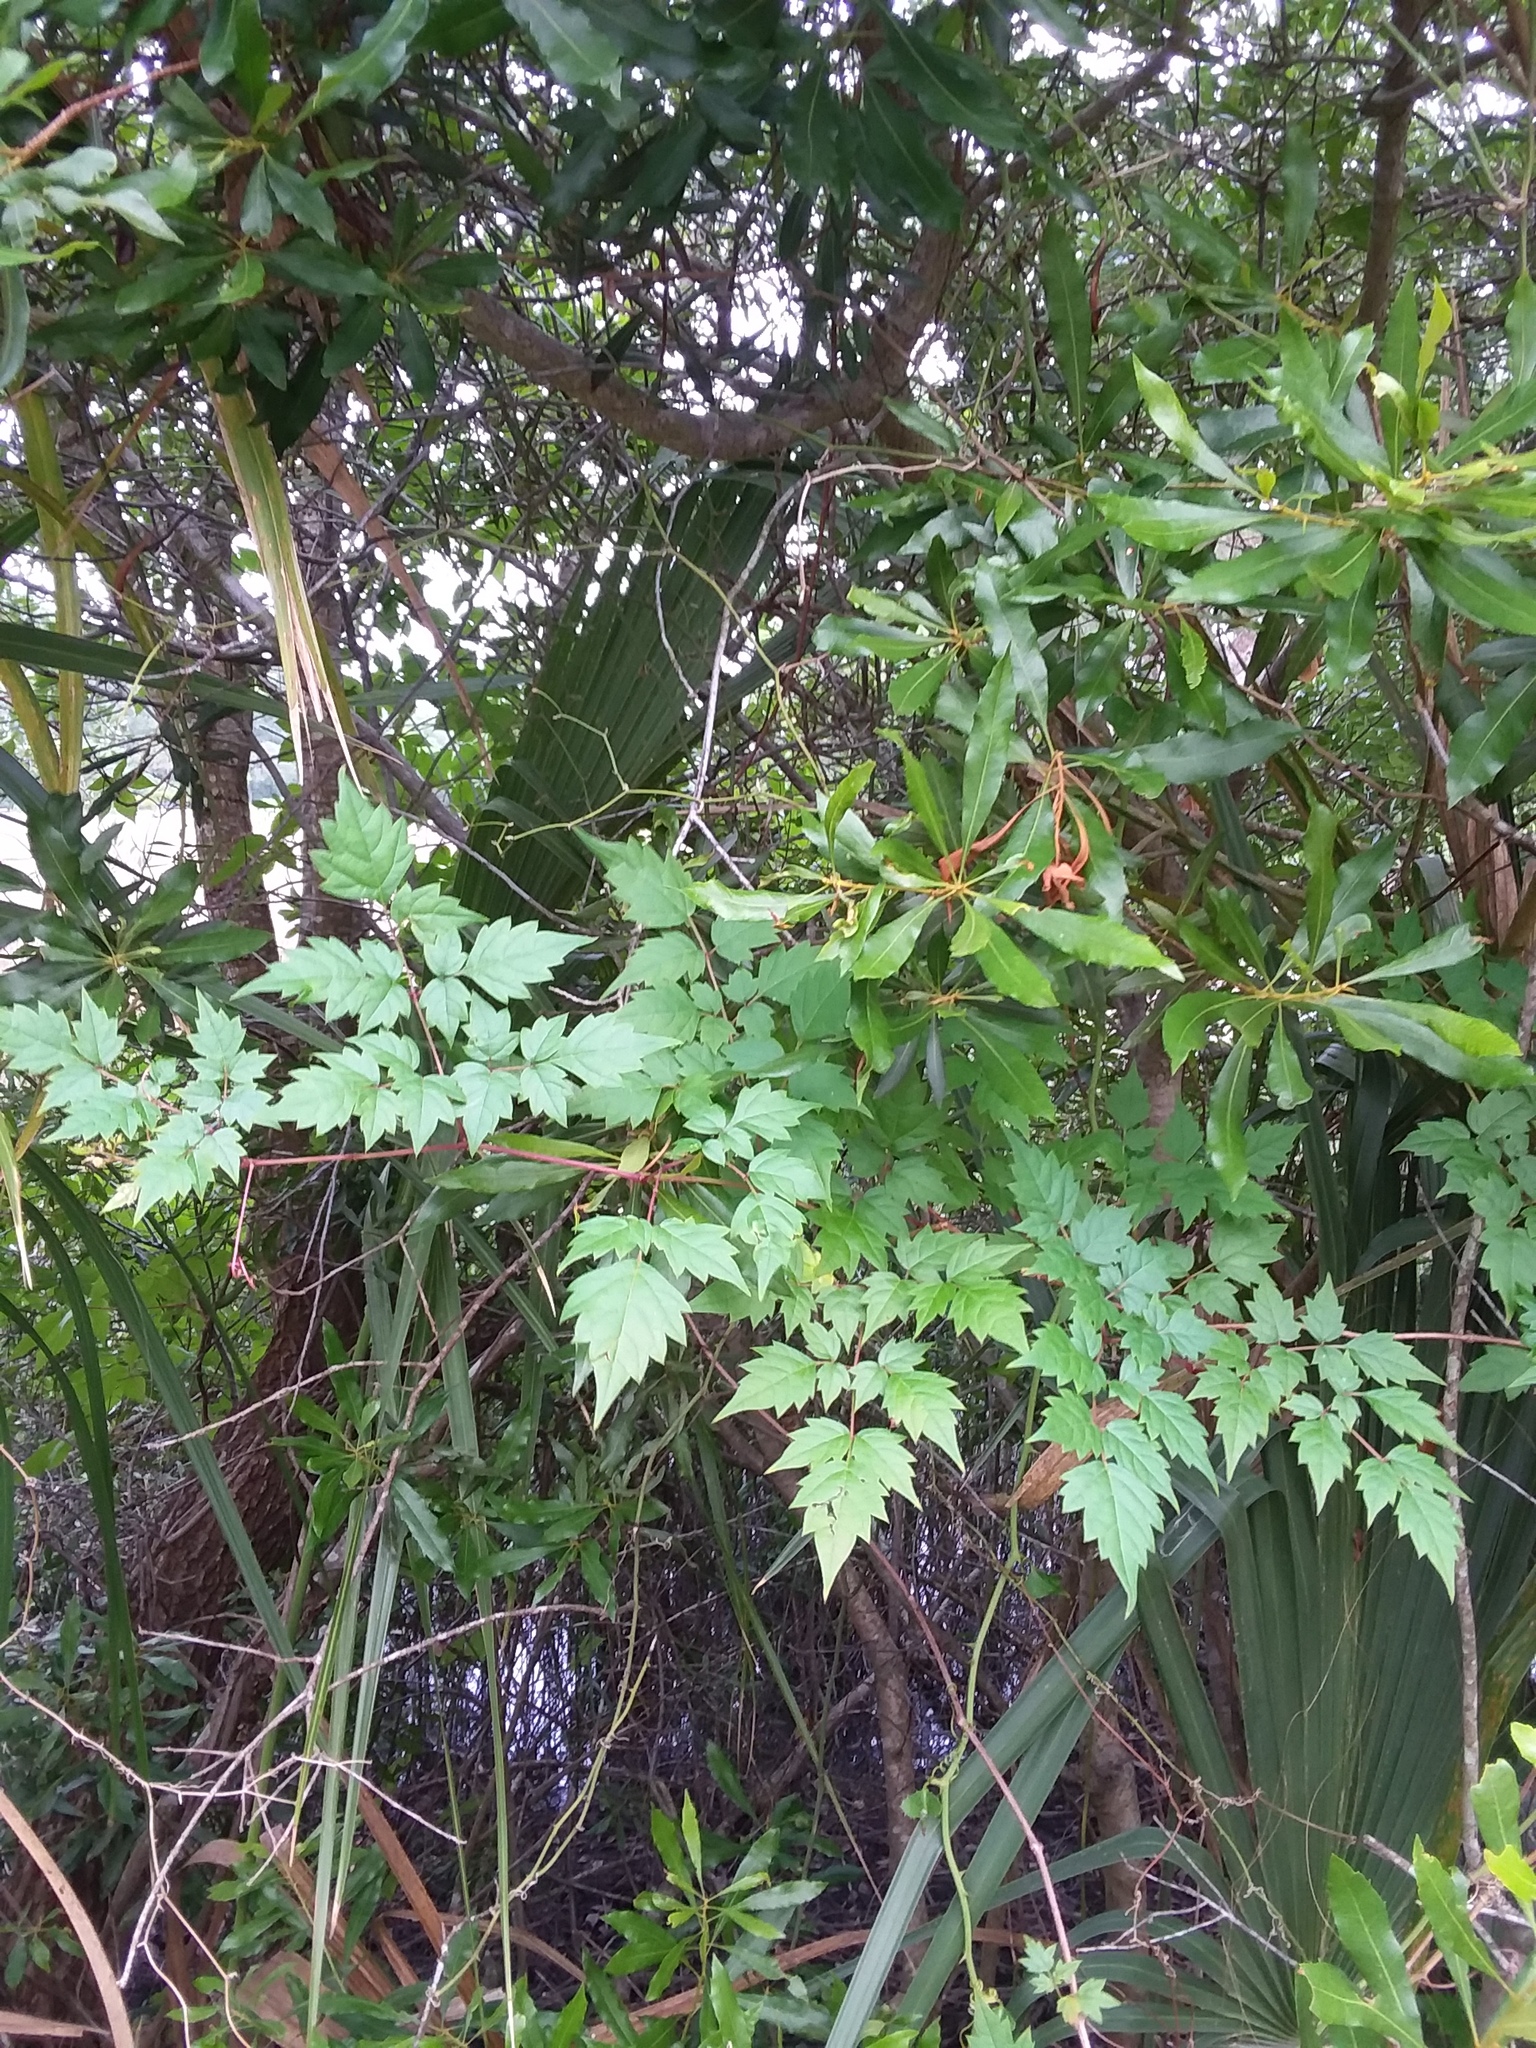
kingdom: Plantae
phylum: Tracheophyta
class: Magnoliopsida
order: Vitales
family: Vitaceae
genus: Nekemias
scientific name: Nekemias arborea
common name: Peppervine
